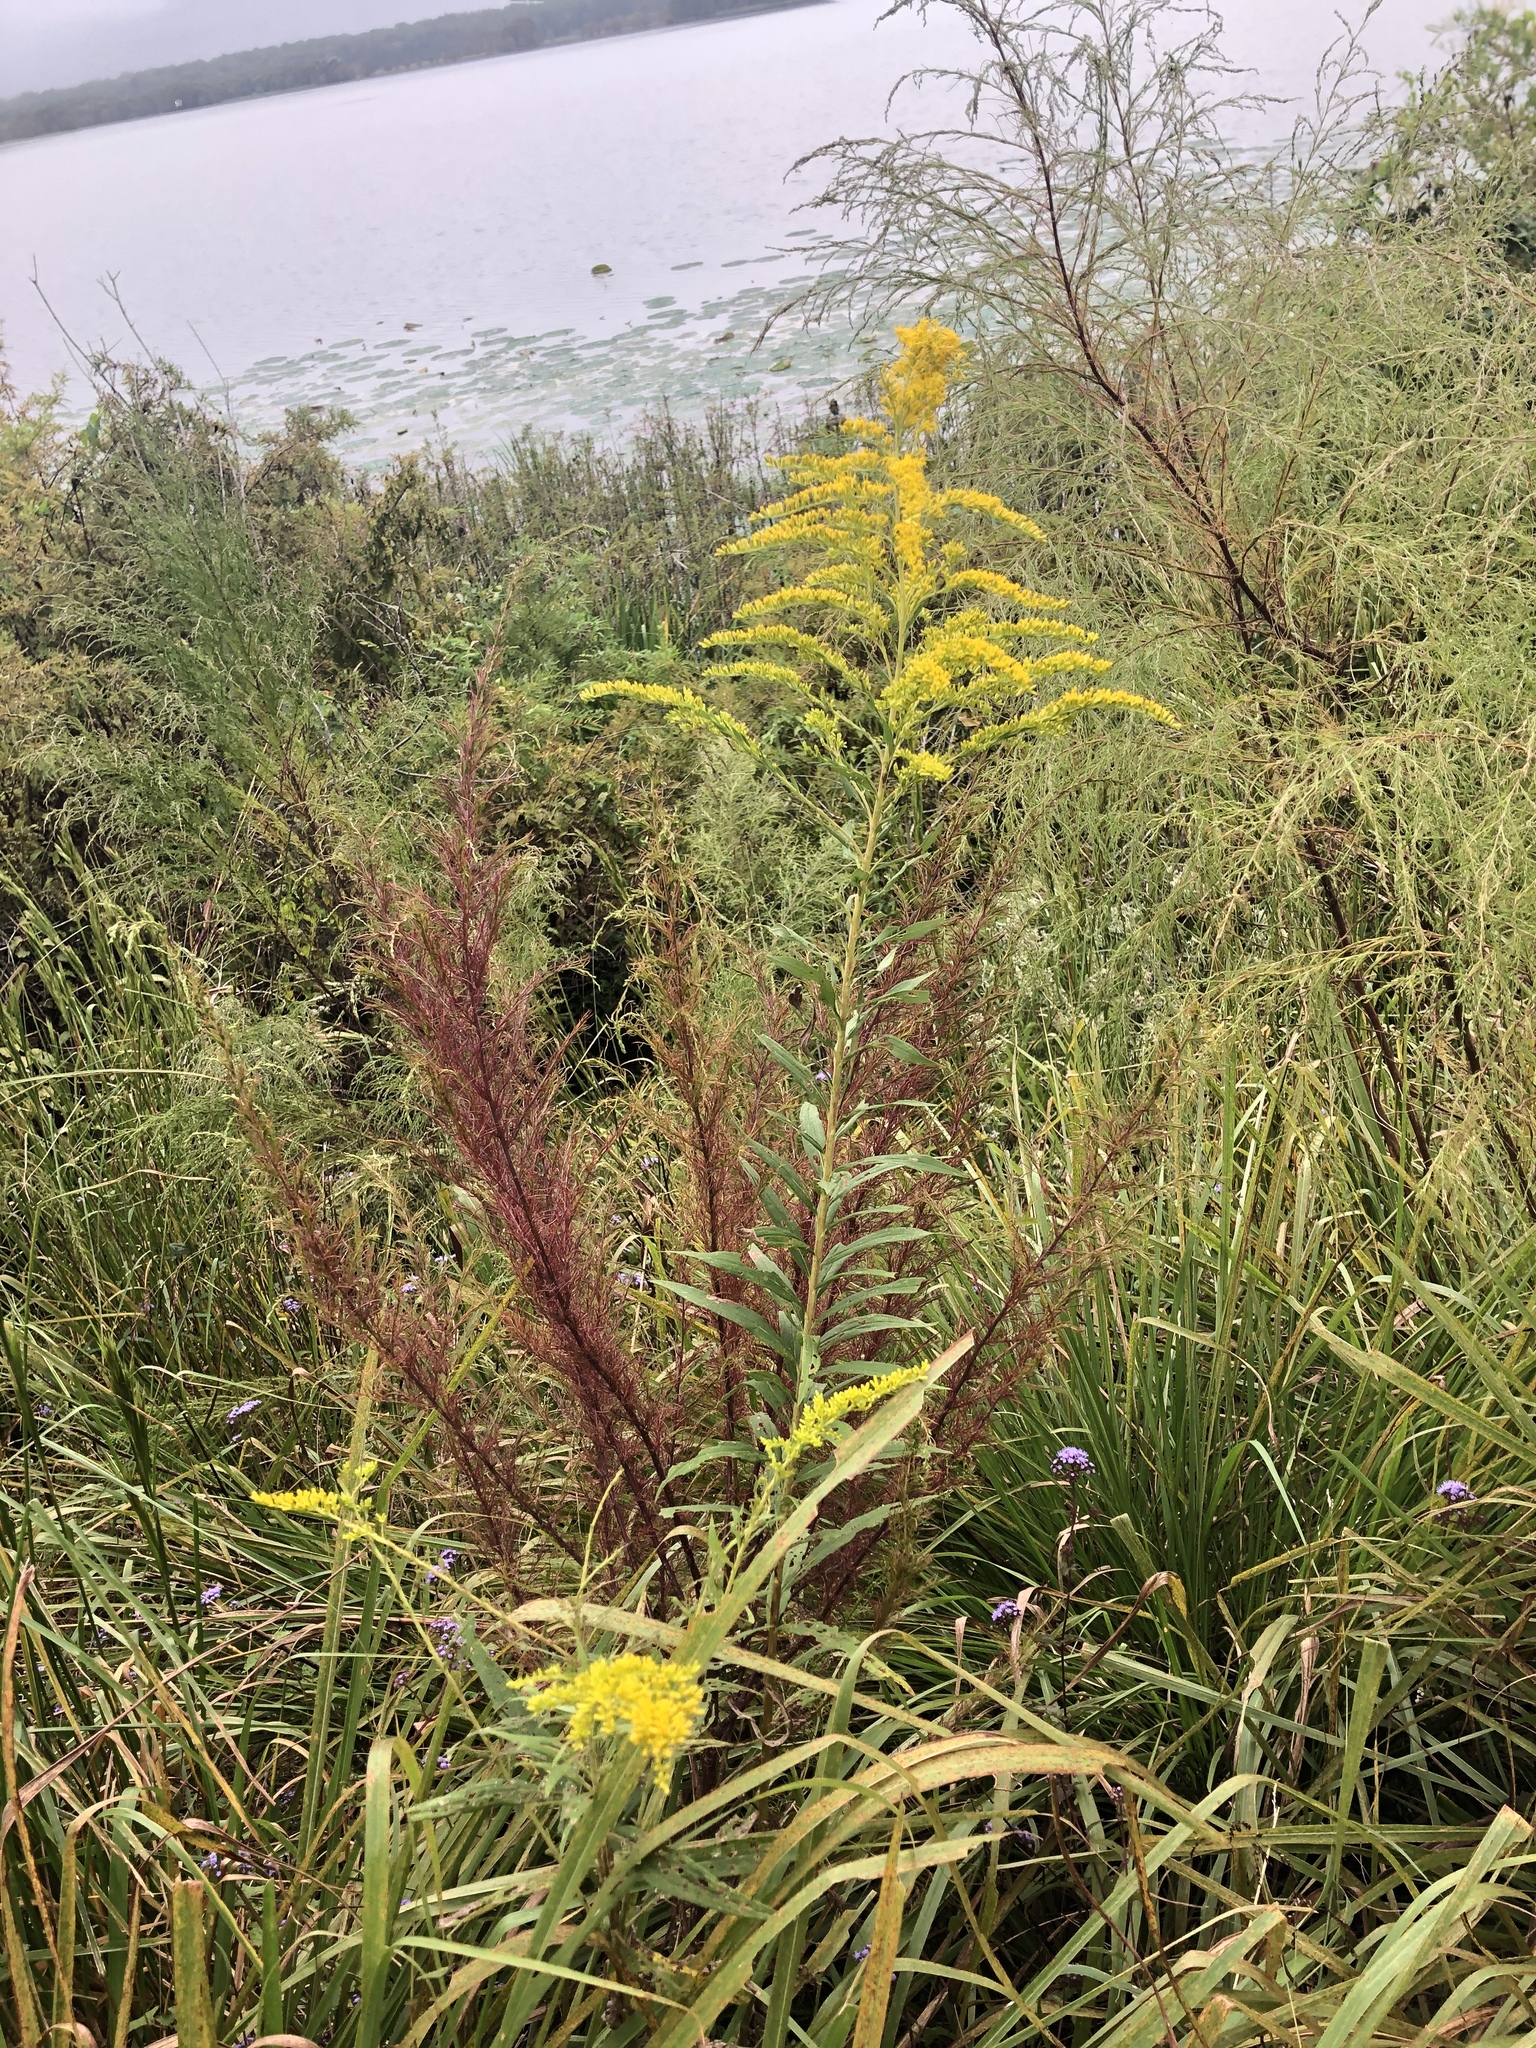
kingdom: Plantae
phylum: Tracheophyta
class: Magnoliopsida
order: Asterales
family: Asteraceae
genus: Solidago
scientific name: Solidago altissima
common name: Late goldenrod
